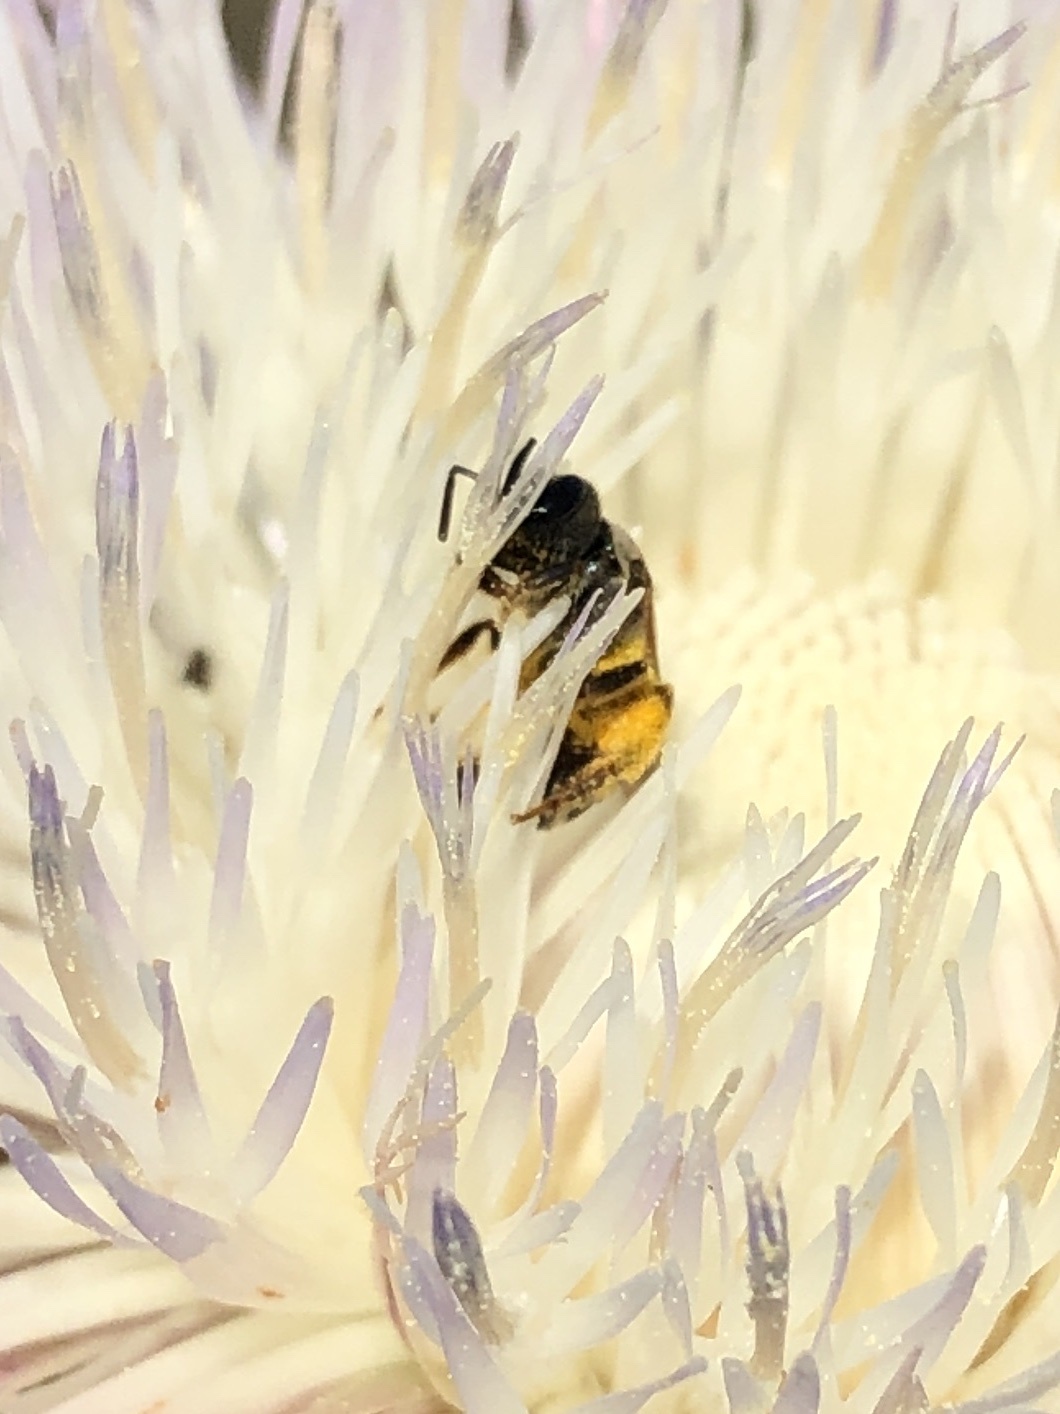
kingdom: Animalia
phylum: Arthropoda
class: Insecta
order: Hymenoptera
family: Halictidae
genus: Halictus
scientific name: Halictus ligatus
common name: Ligated furrow bee
